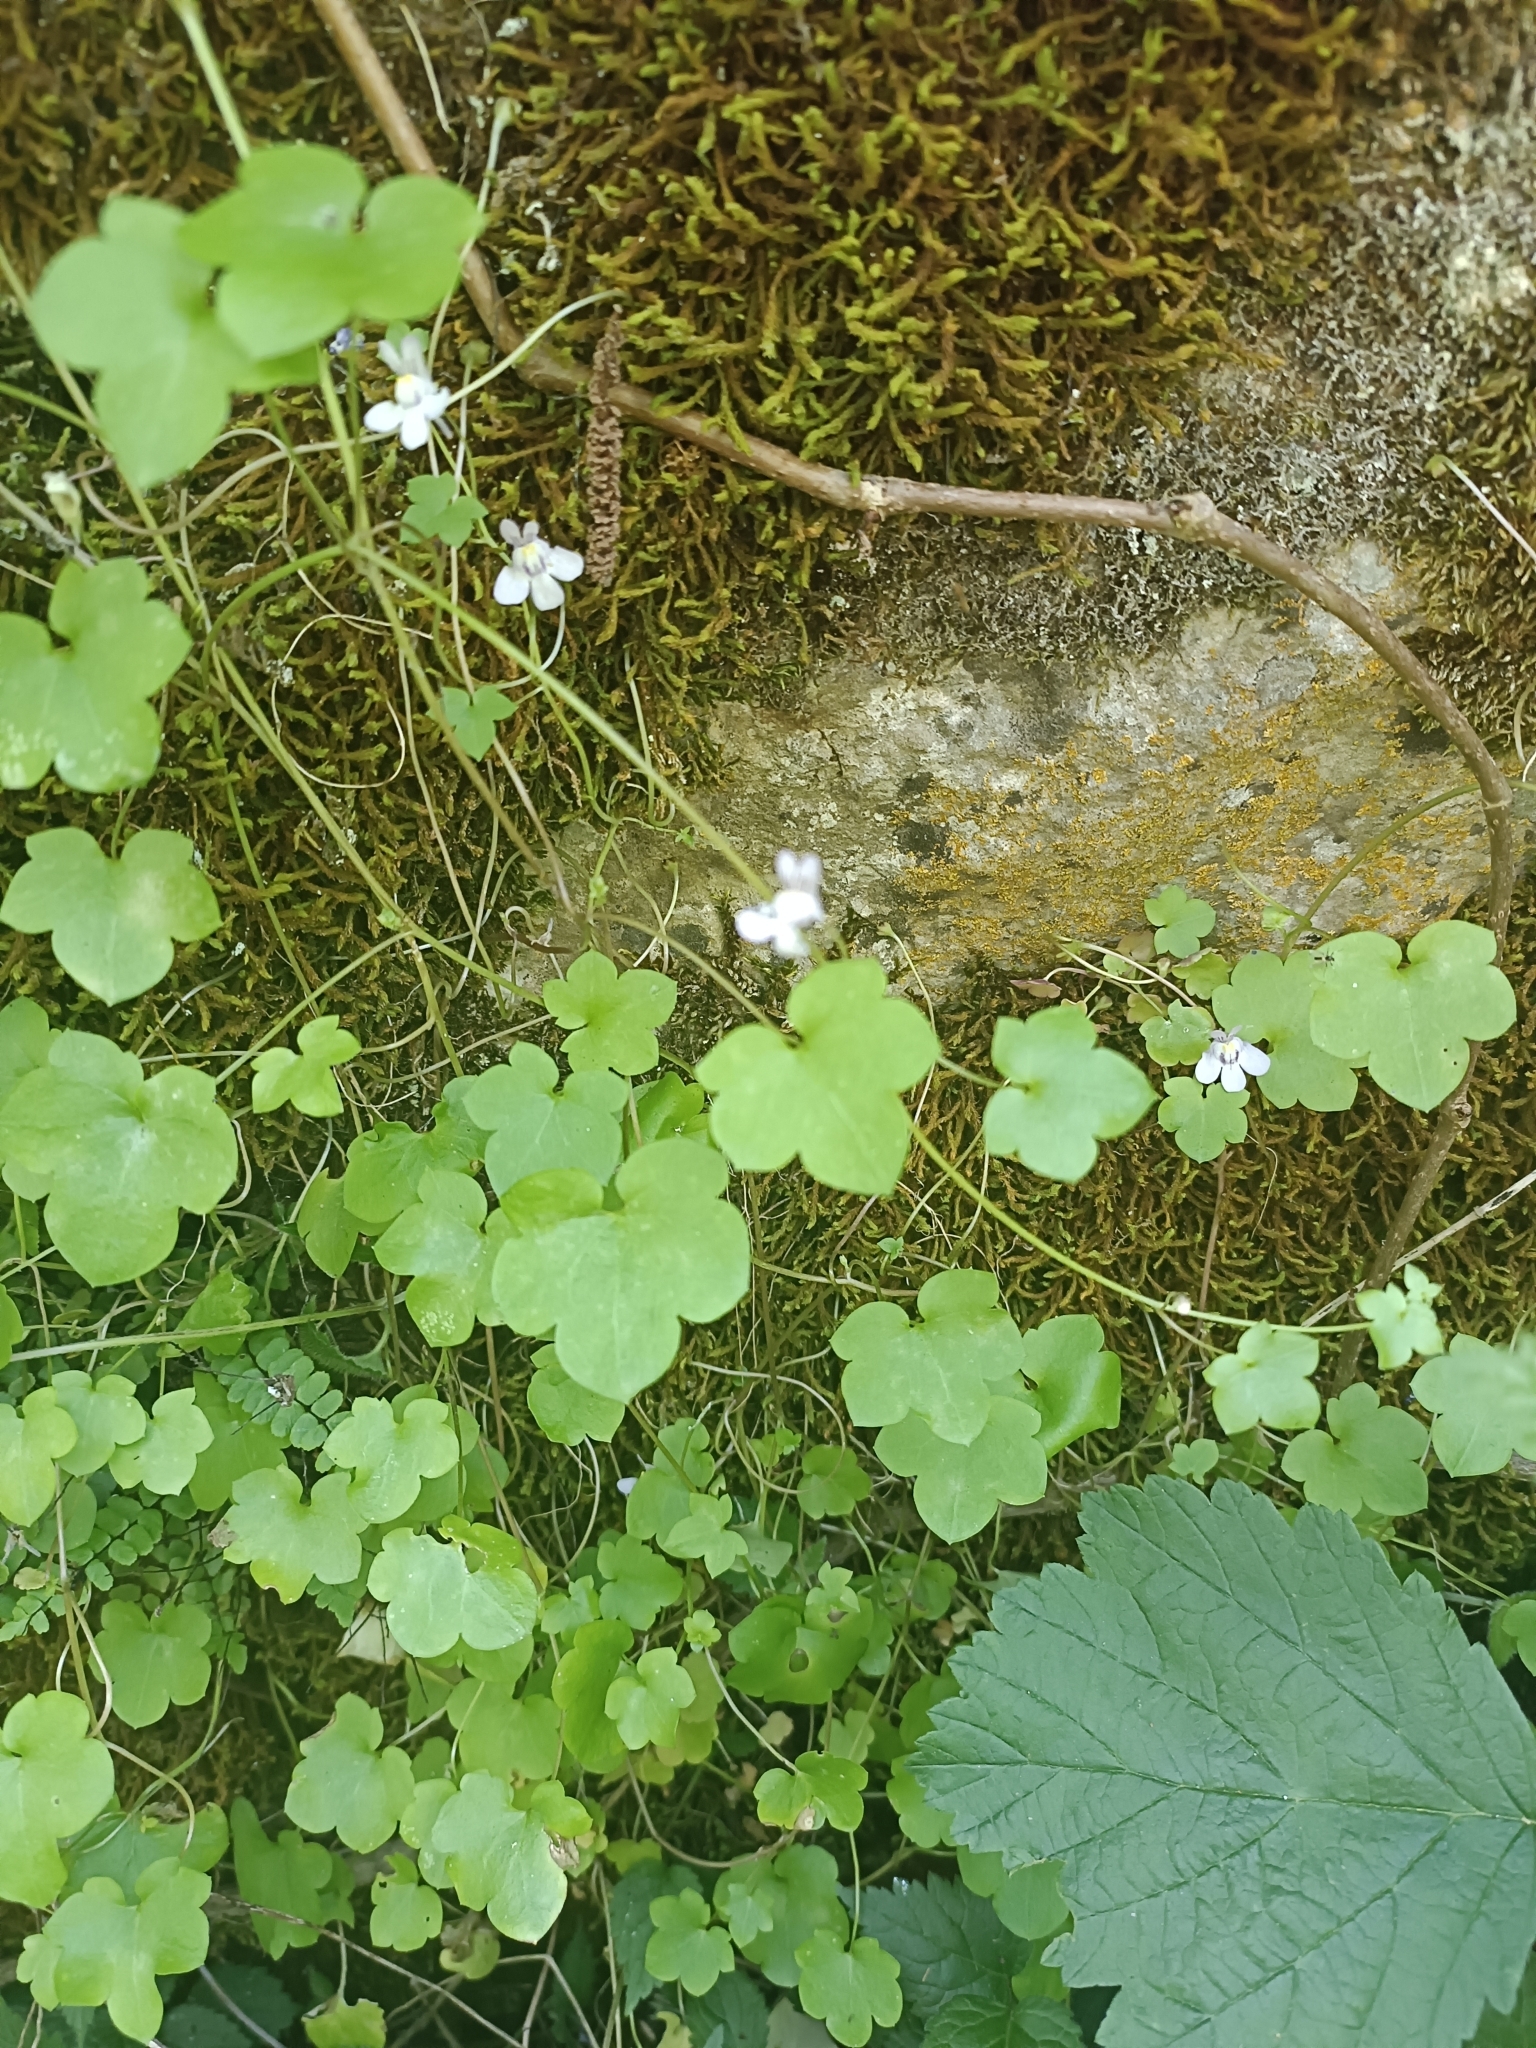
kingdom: Plantae
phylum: Tracheophyta
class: Magnoliopsida
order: Lamiales
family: Plantaginaceae
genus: Cymbalaria
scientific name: Cymbalaria muralis
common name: Ivy-leaved toadflax
